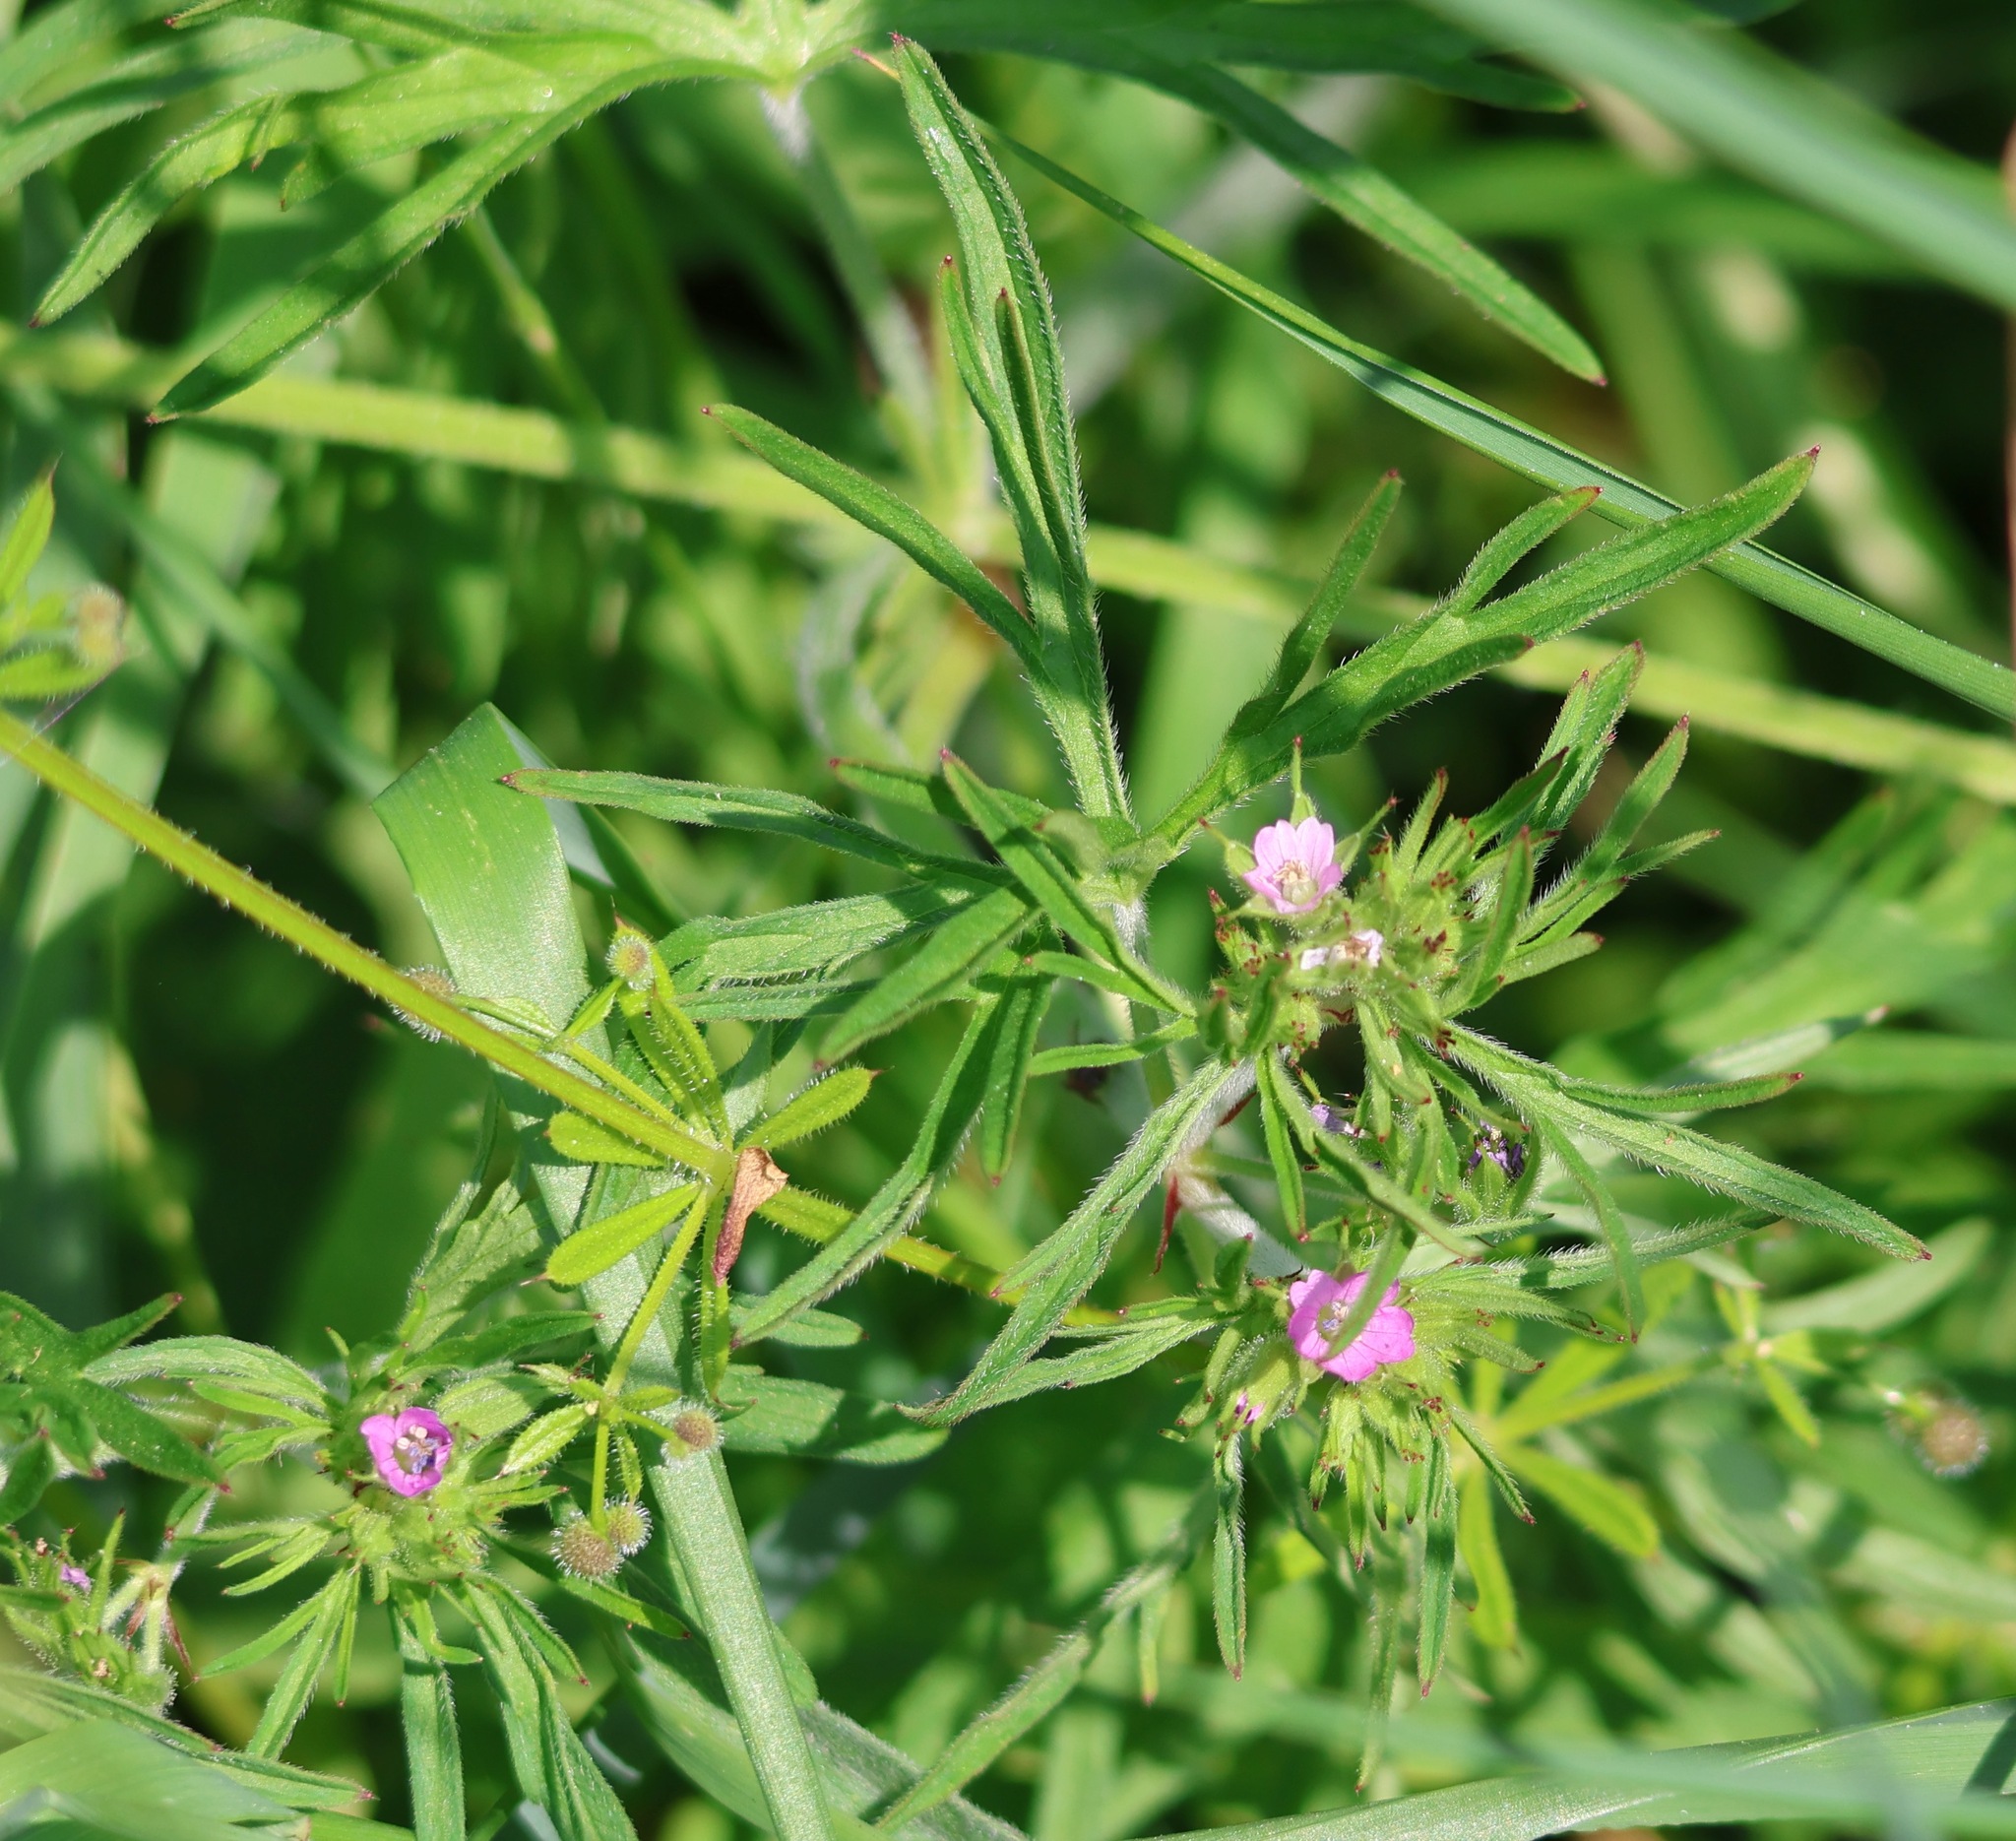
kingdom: Plantae
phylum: Tracheophyta
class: Magnoliopsida
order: Geraniales
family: Geraniaceae
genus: Geranium
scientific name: Geranium dissectum
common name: Cut-leaved crane's-bill
